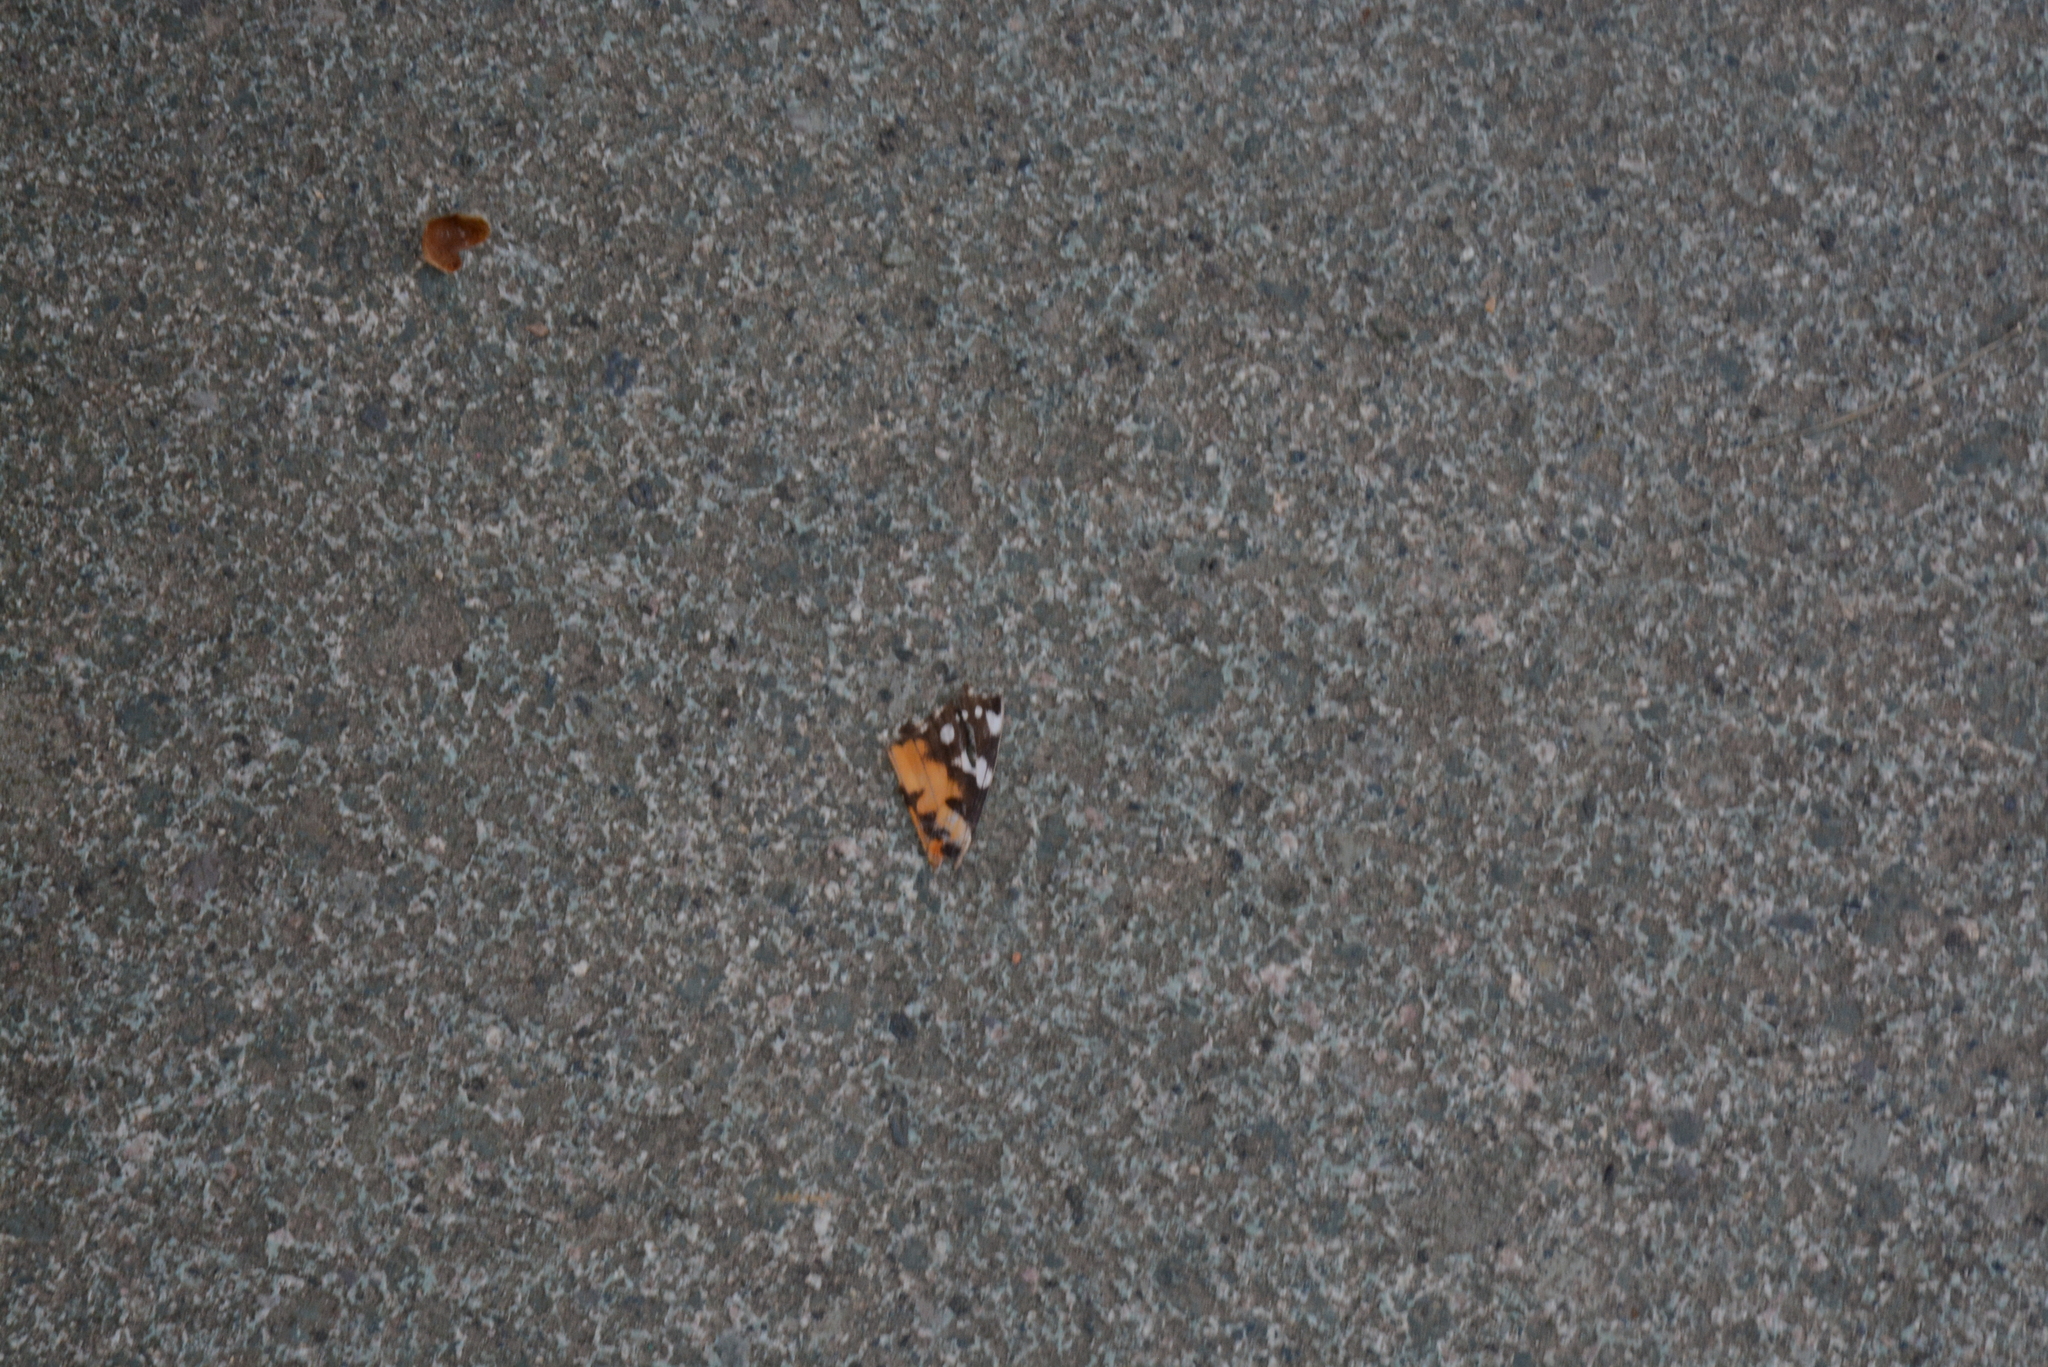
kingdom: Animalia
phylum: Arthropoda
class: Insecta
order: Lepidoptera
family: Nymphalidae
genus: Vanessa
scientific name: Vanessa cardui
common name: Painted lady
